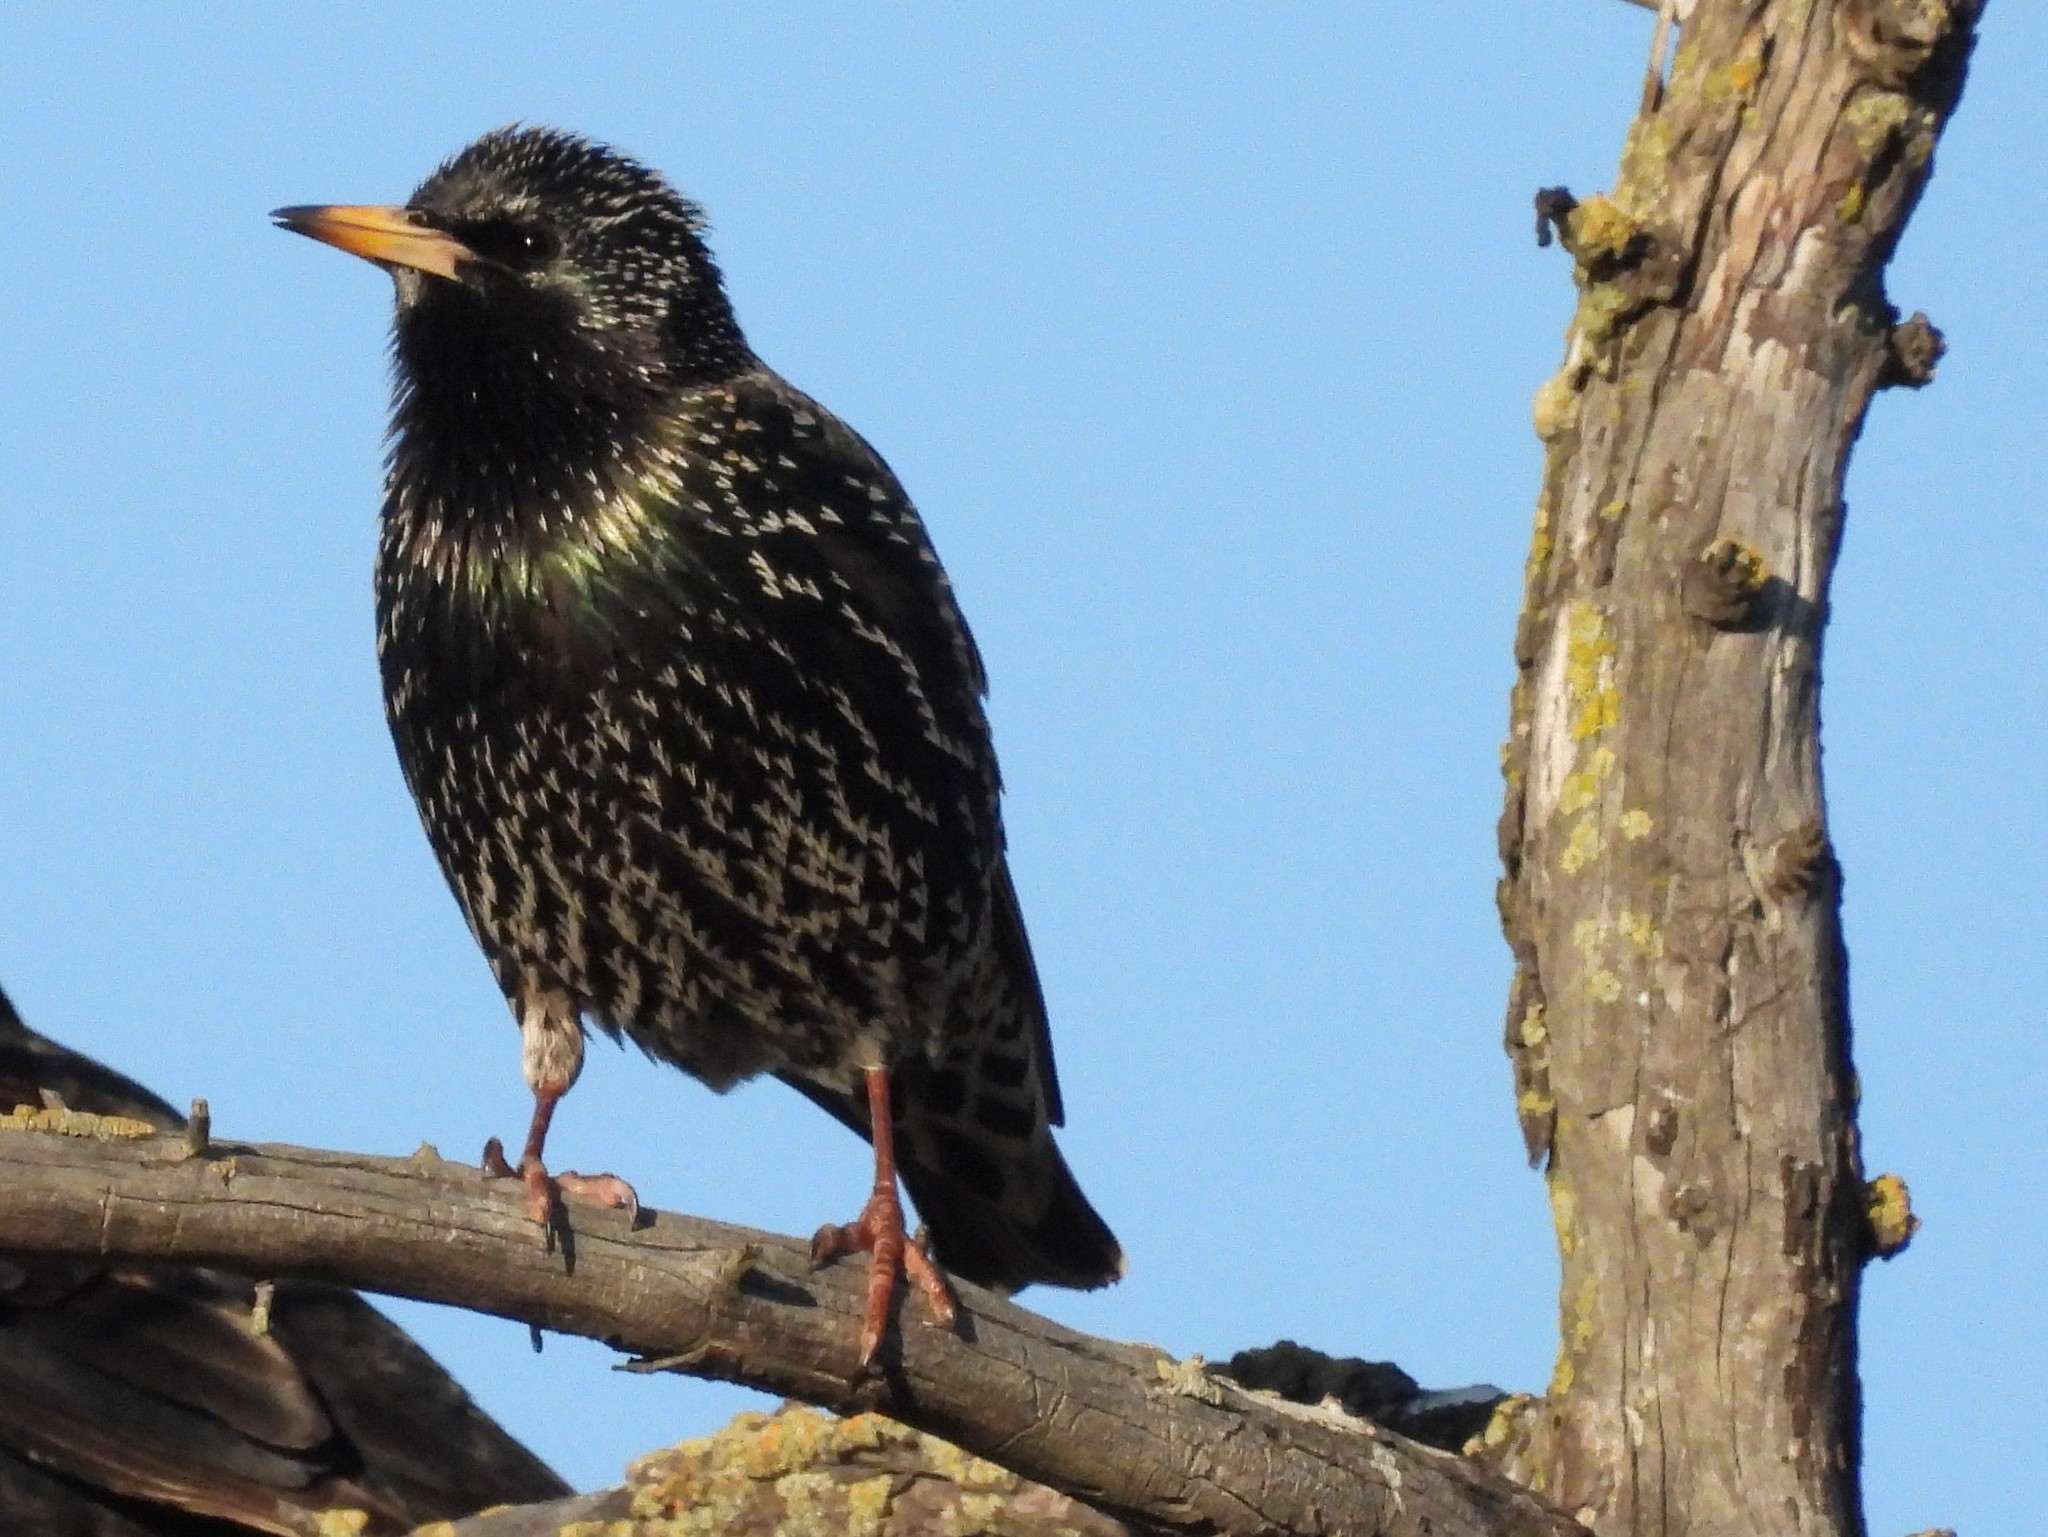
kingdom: Animalia
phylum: Chordata
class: Aves
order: Passeriformes
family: Sturnidae
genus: Sturnus
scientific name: Sturnus vulgaris
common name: Common starling
